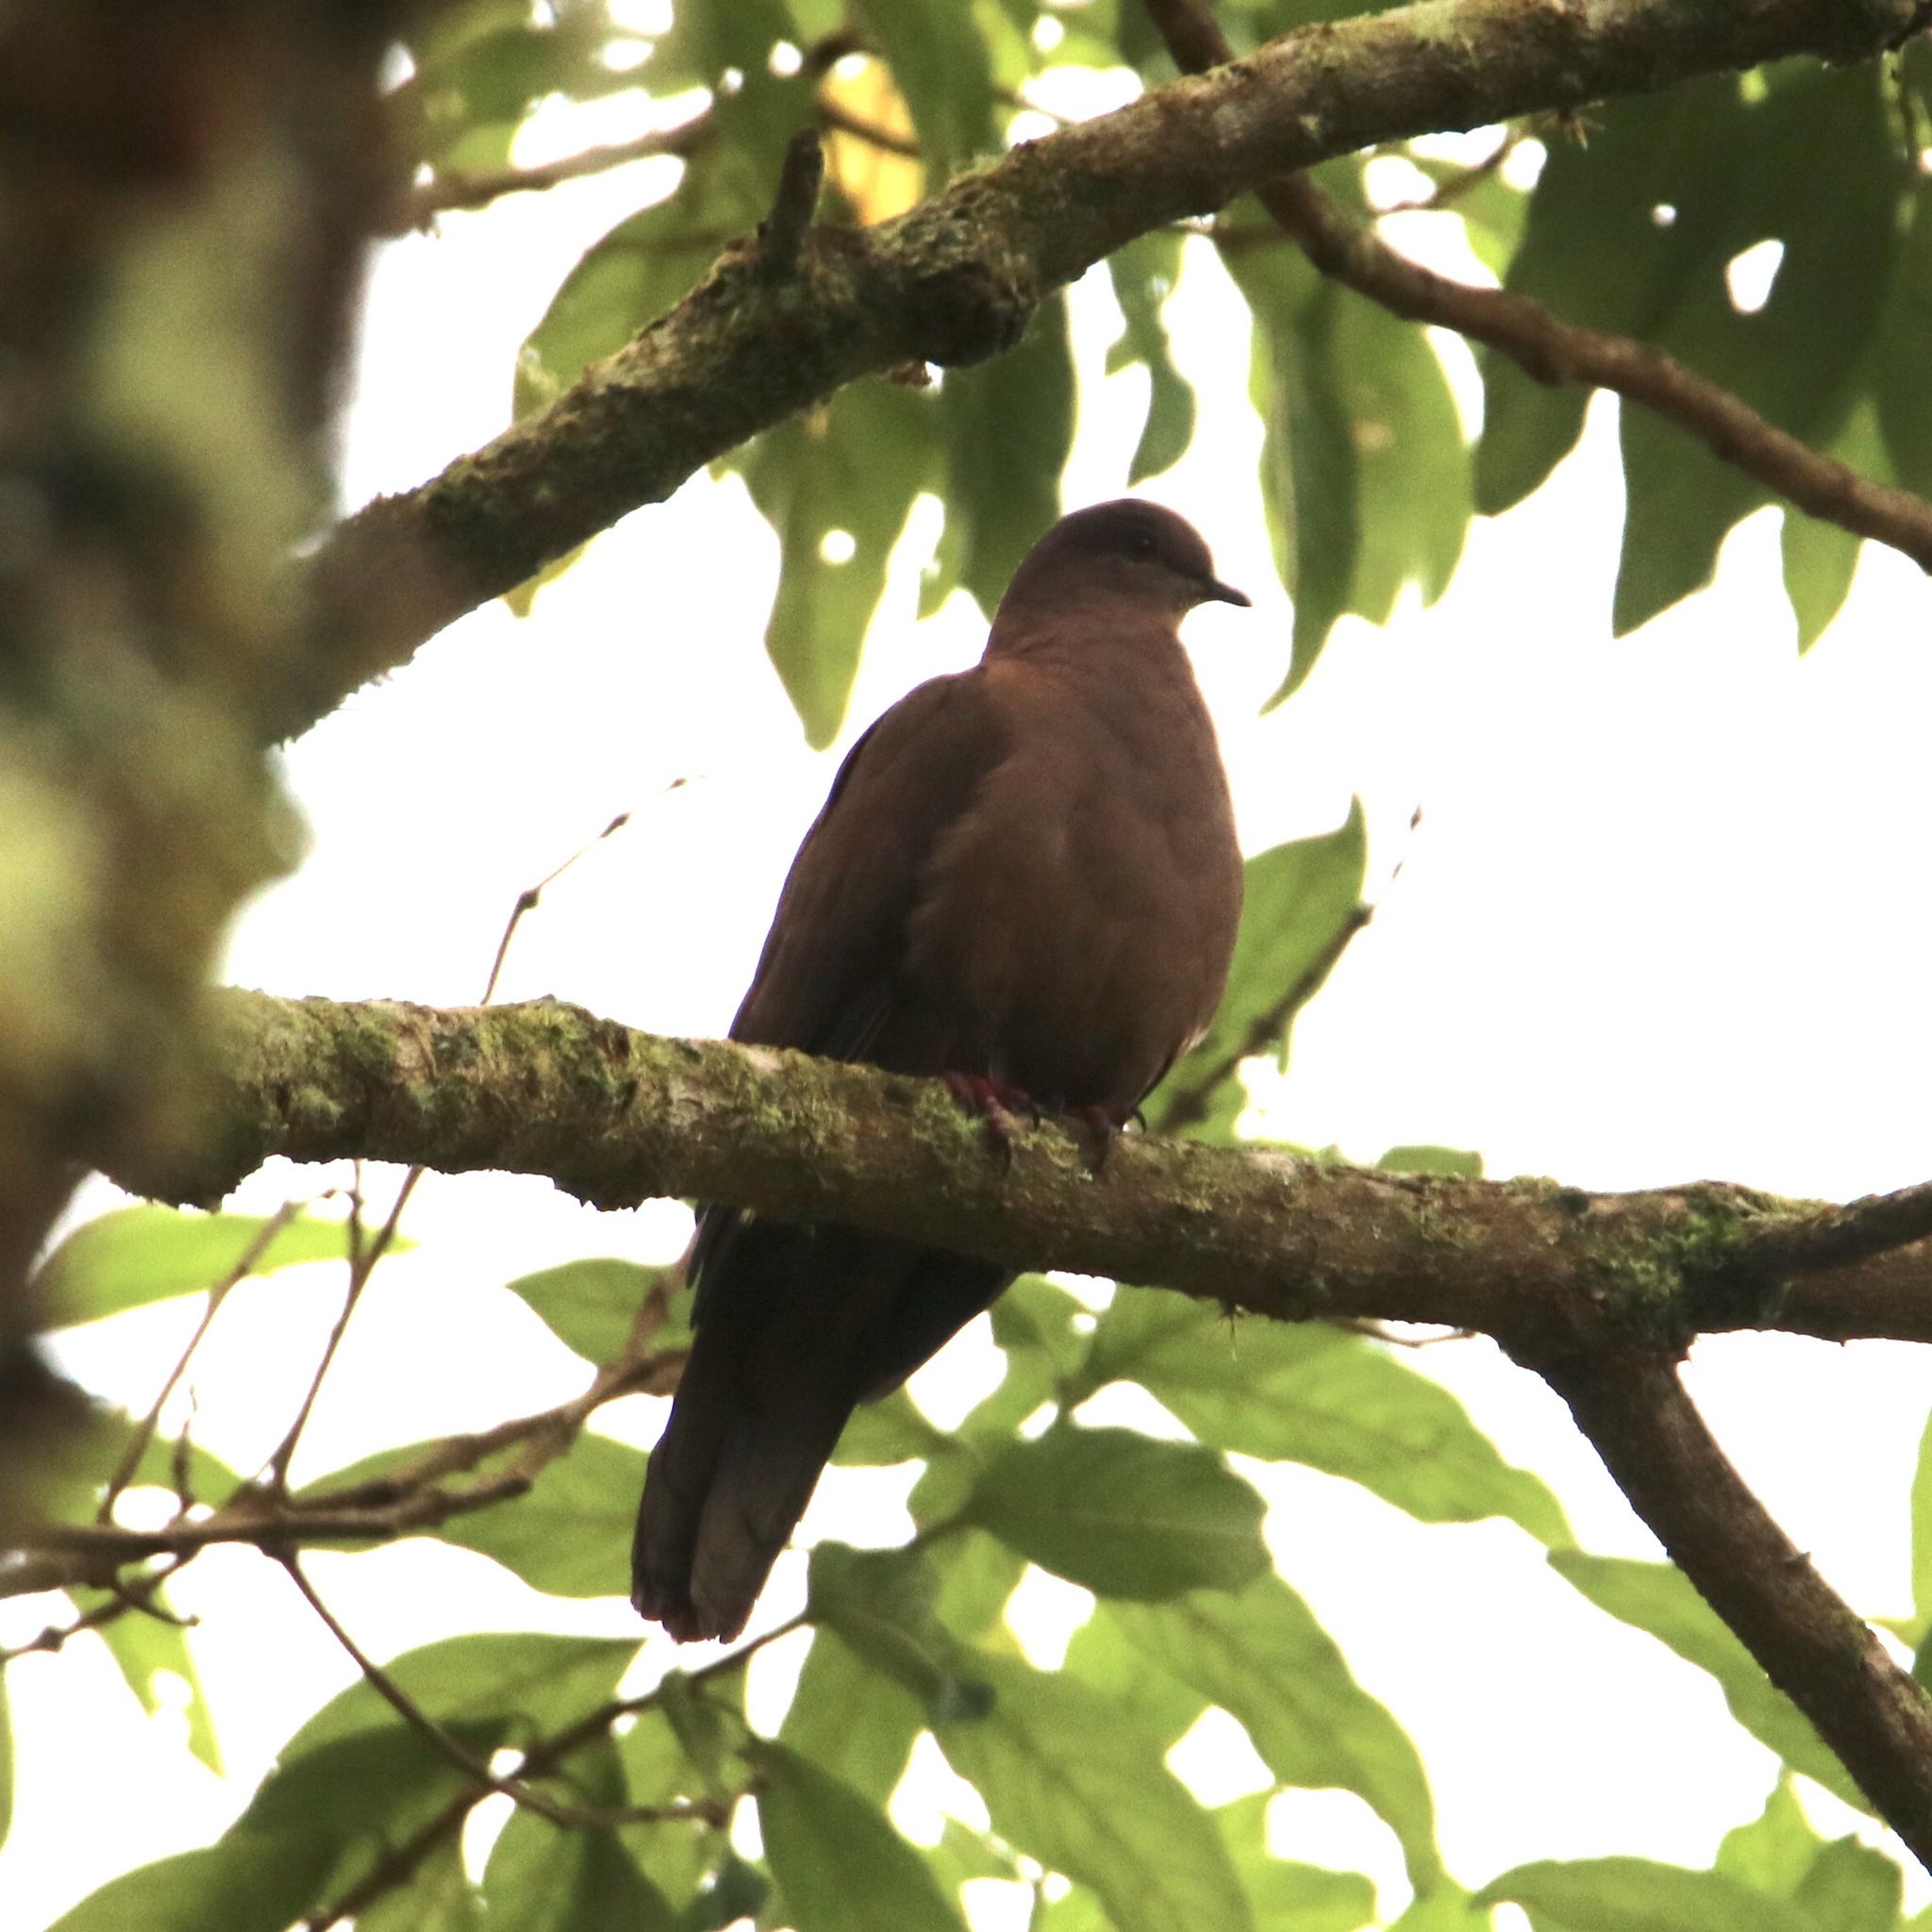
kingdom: Animalia
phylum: Chordata
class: Aves
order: Columbiformes
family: Columbidae
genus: Patagioenas
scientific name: Patagioenas nigrirostris
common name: Short-billed pigeon
